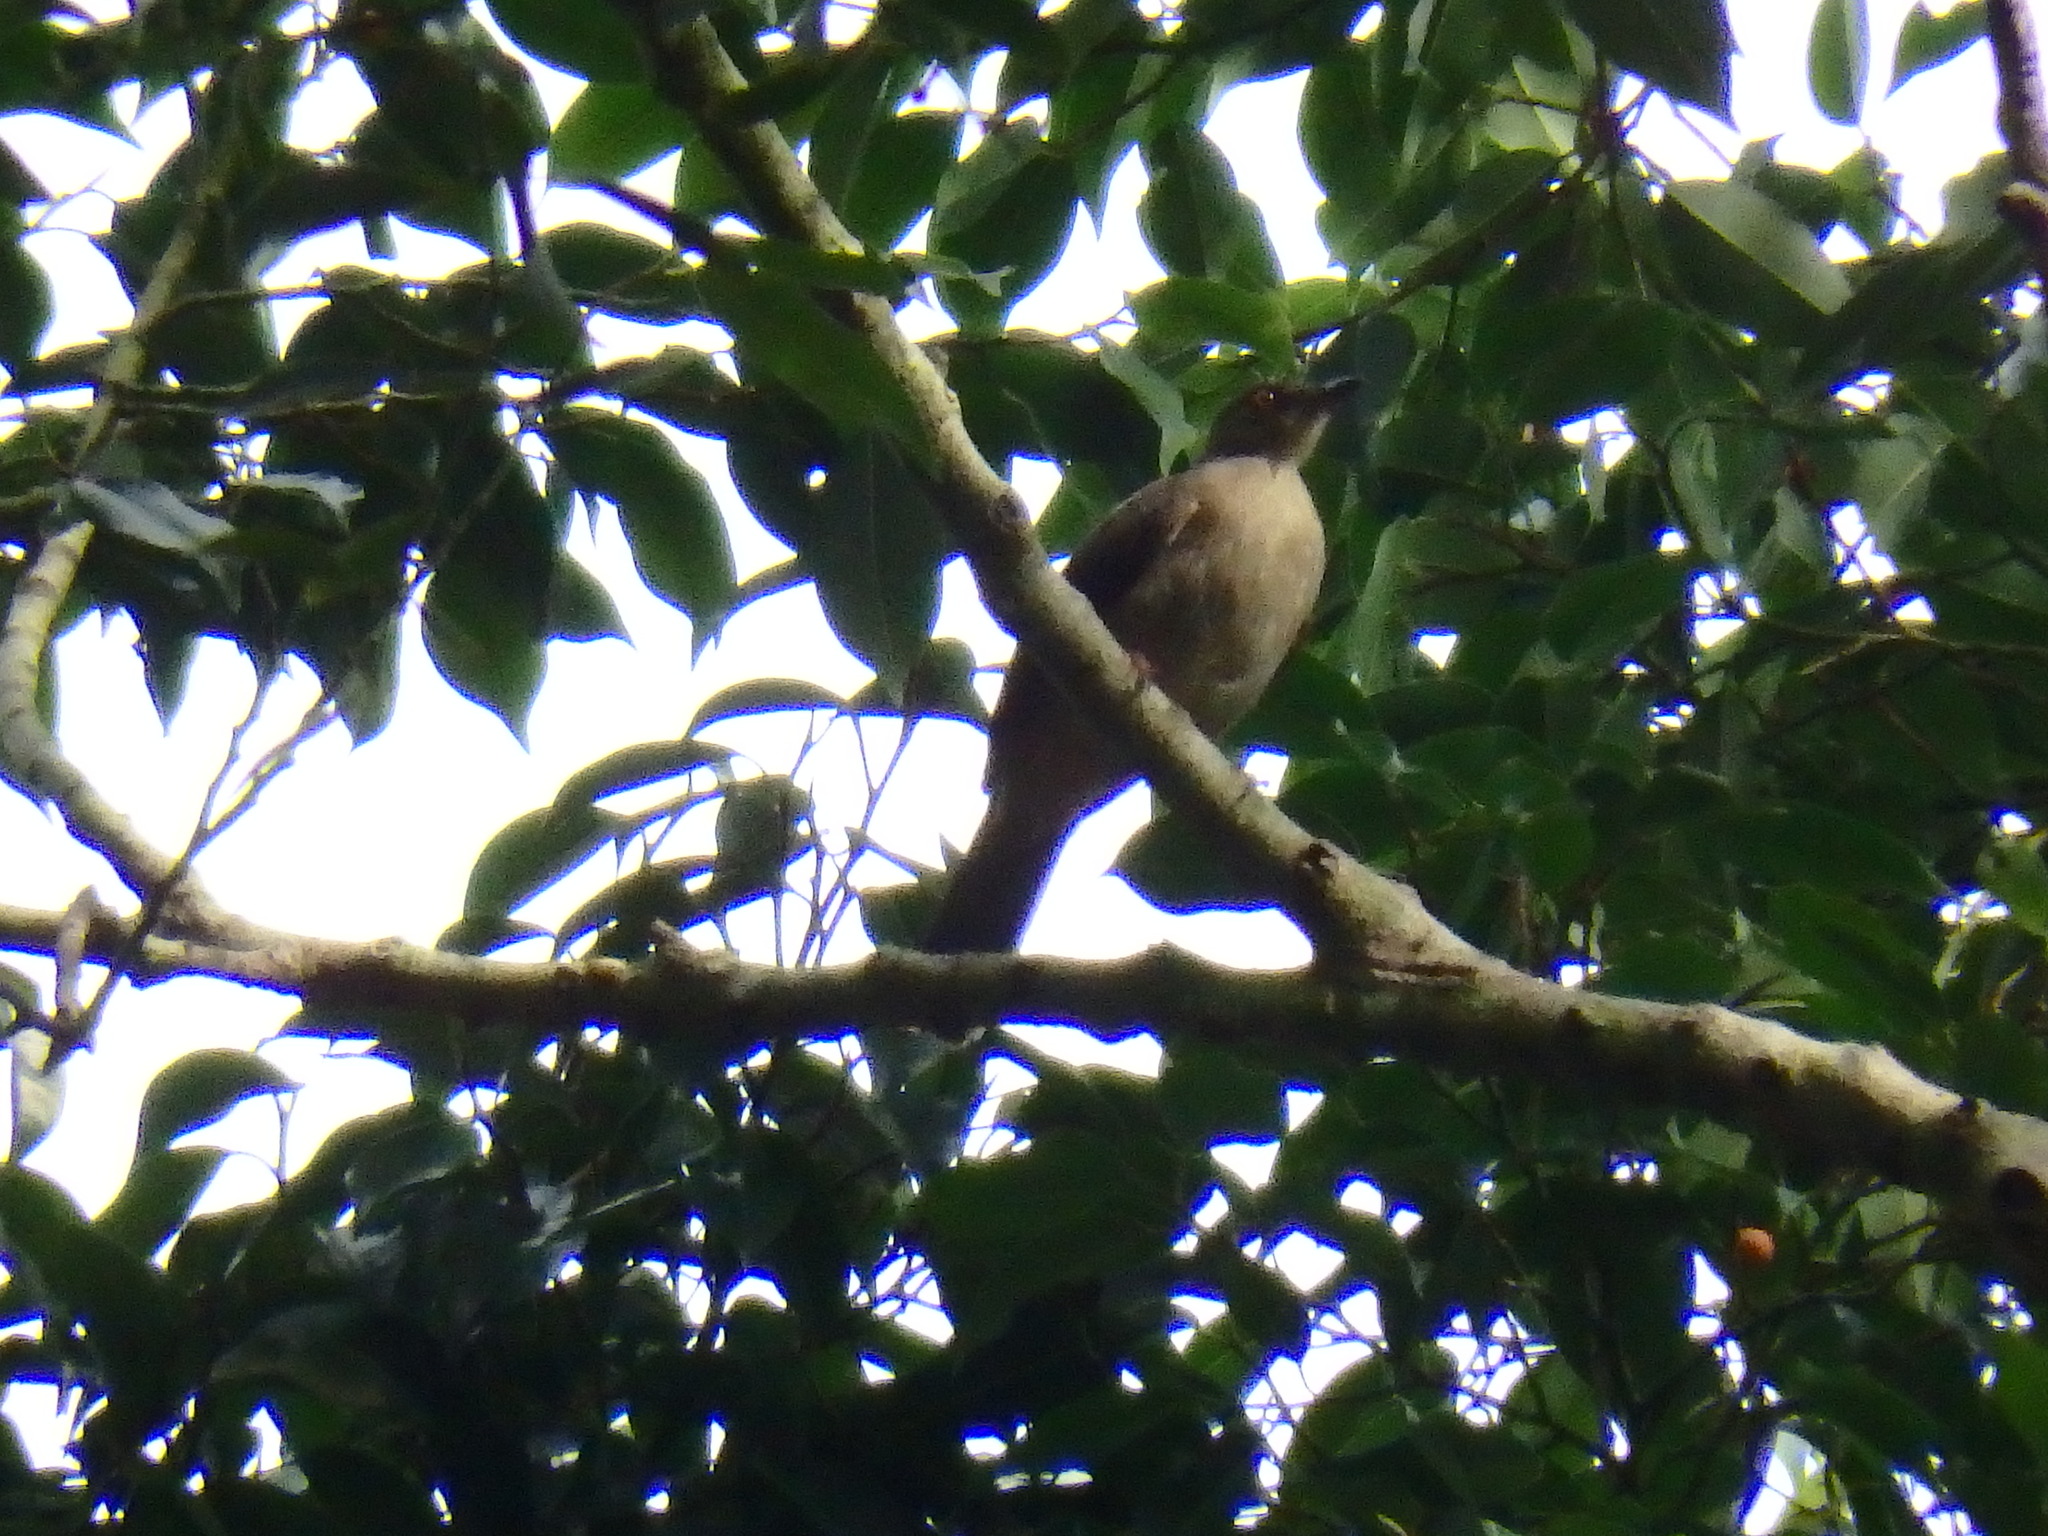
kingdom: Animalia
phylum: Chordata
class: Aves
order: Passeriformes
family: Pycnonotidae
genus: Pycnonotus
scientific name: Pycnonotus brunneus
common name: Asian red-eyed bulbul
